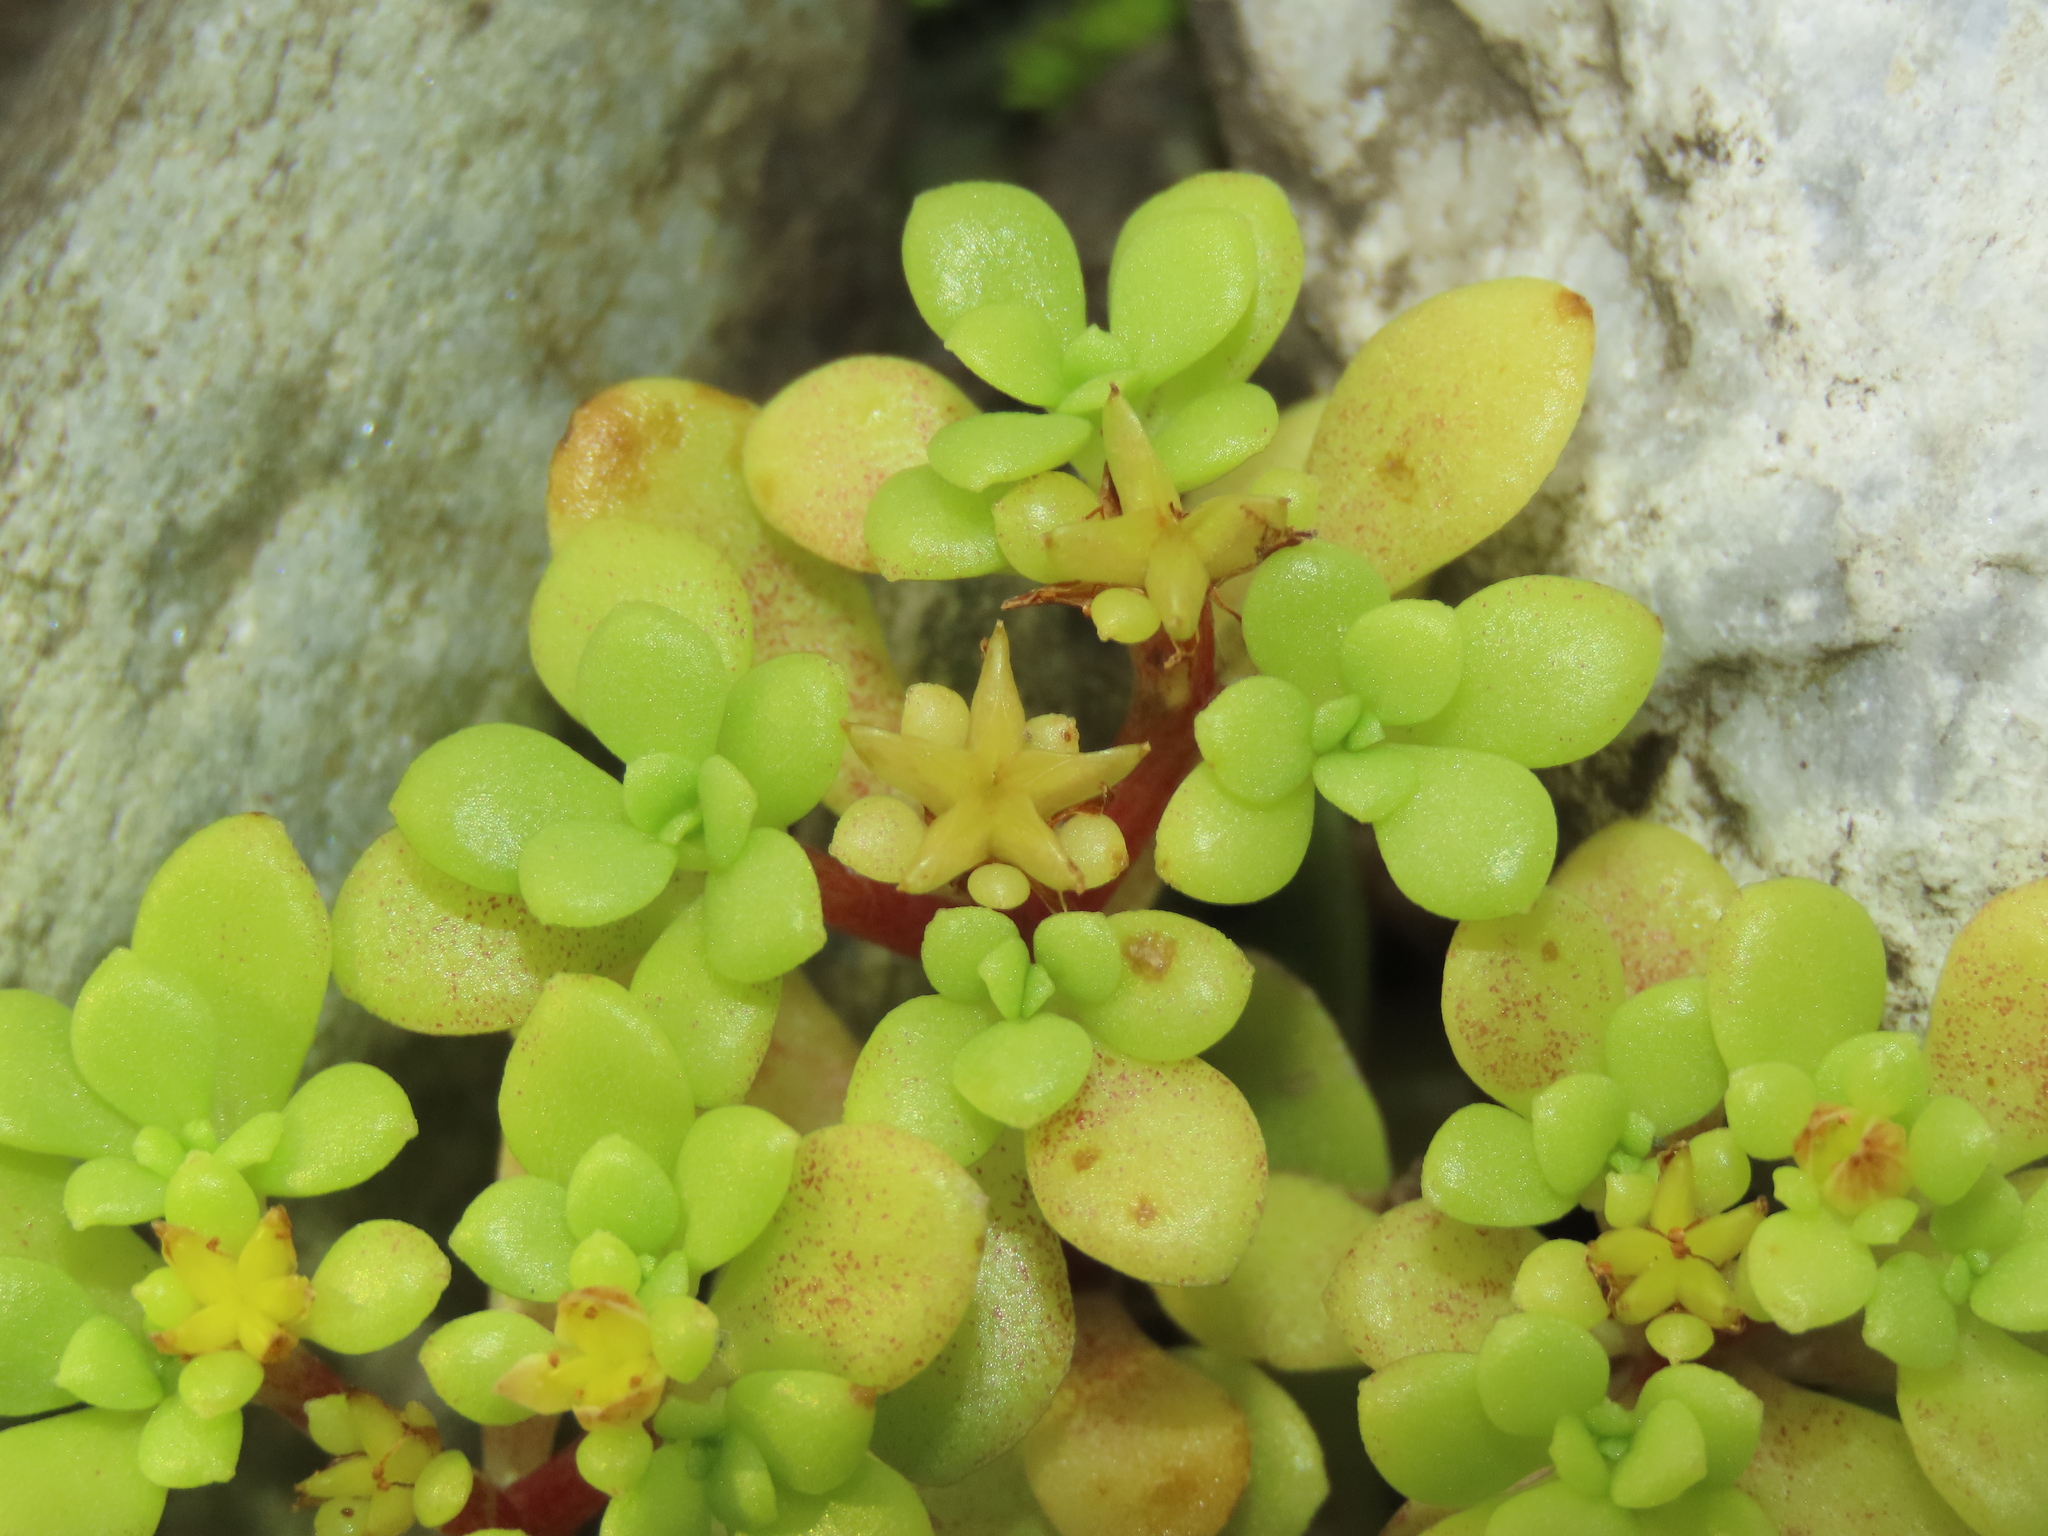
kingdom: Plantae
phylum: Tracheophyta
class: Magnoliopsida
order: Saxifragales
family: Crassulaceae
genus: Sedum
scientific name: Sedum actinocarpum
